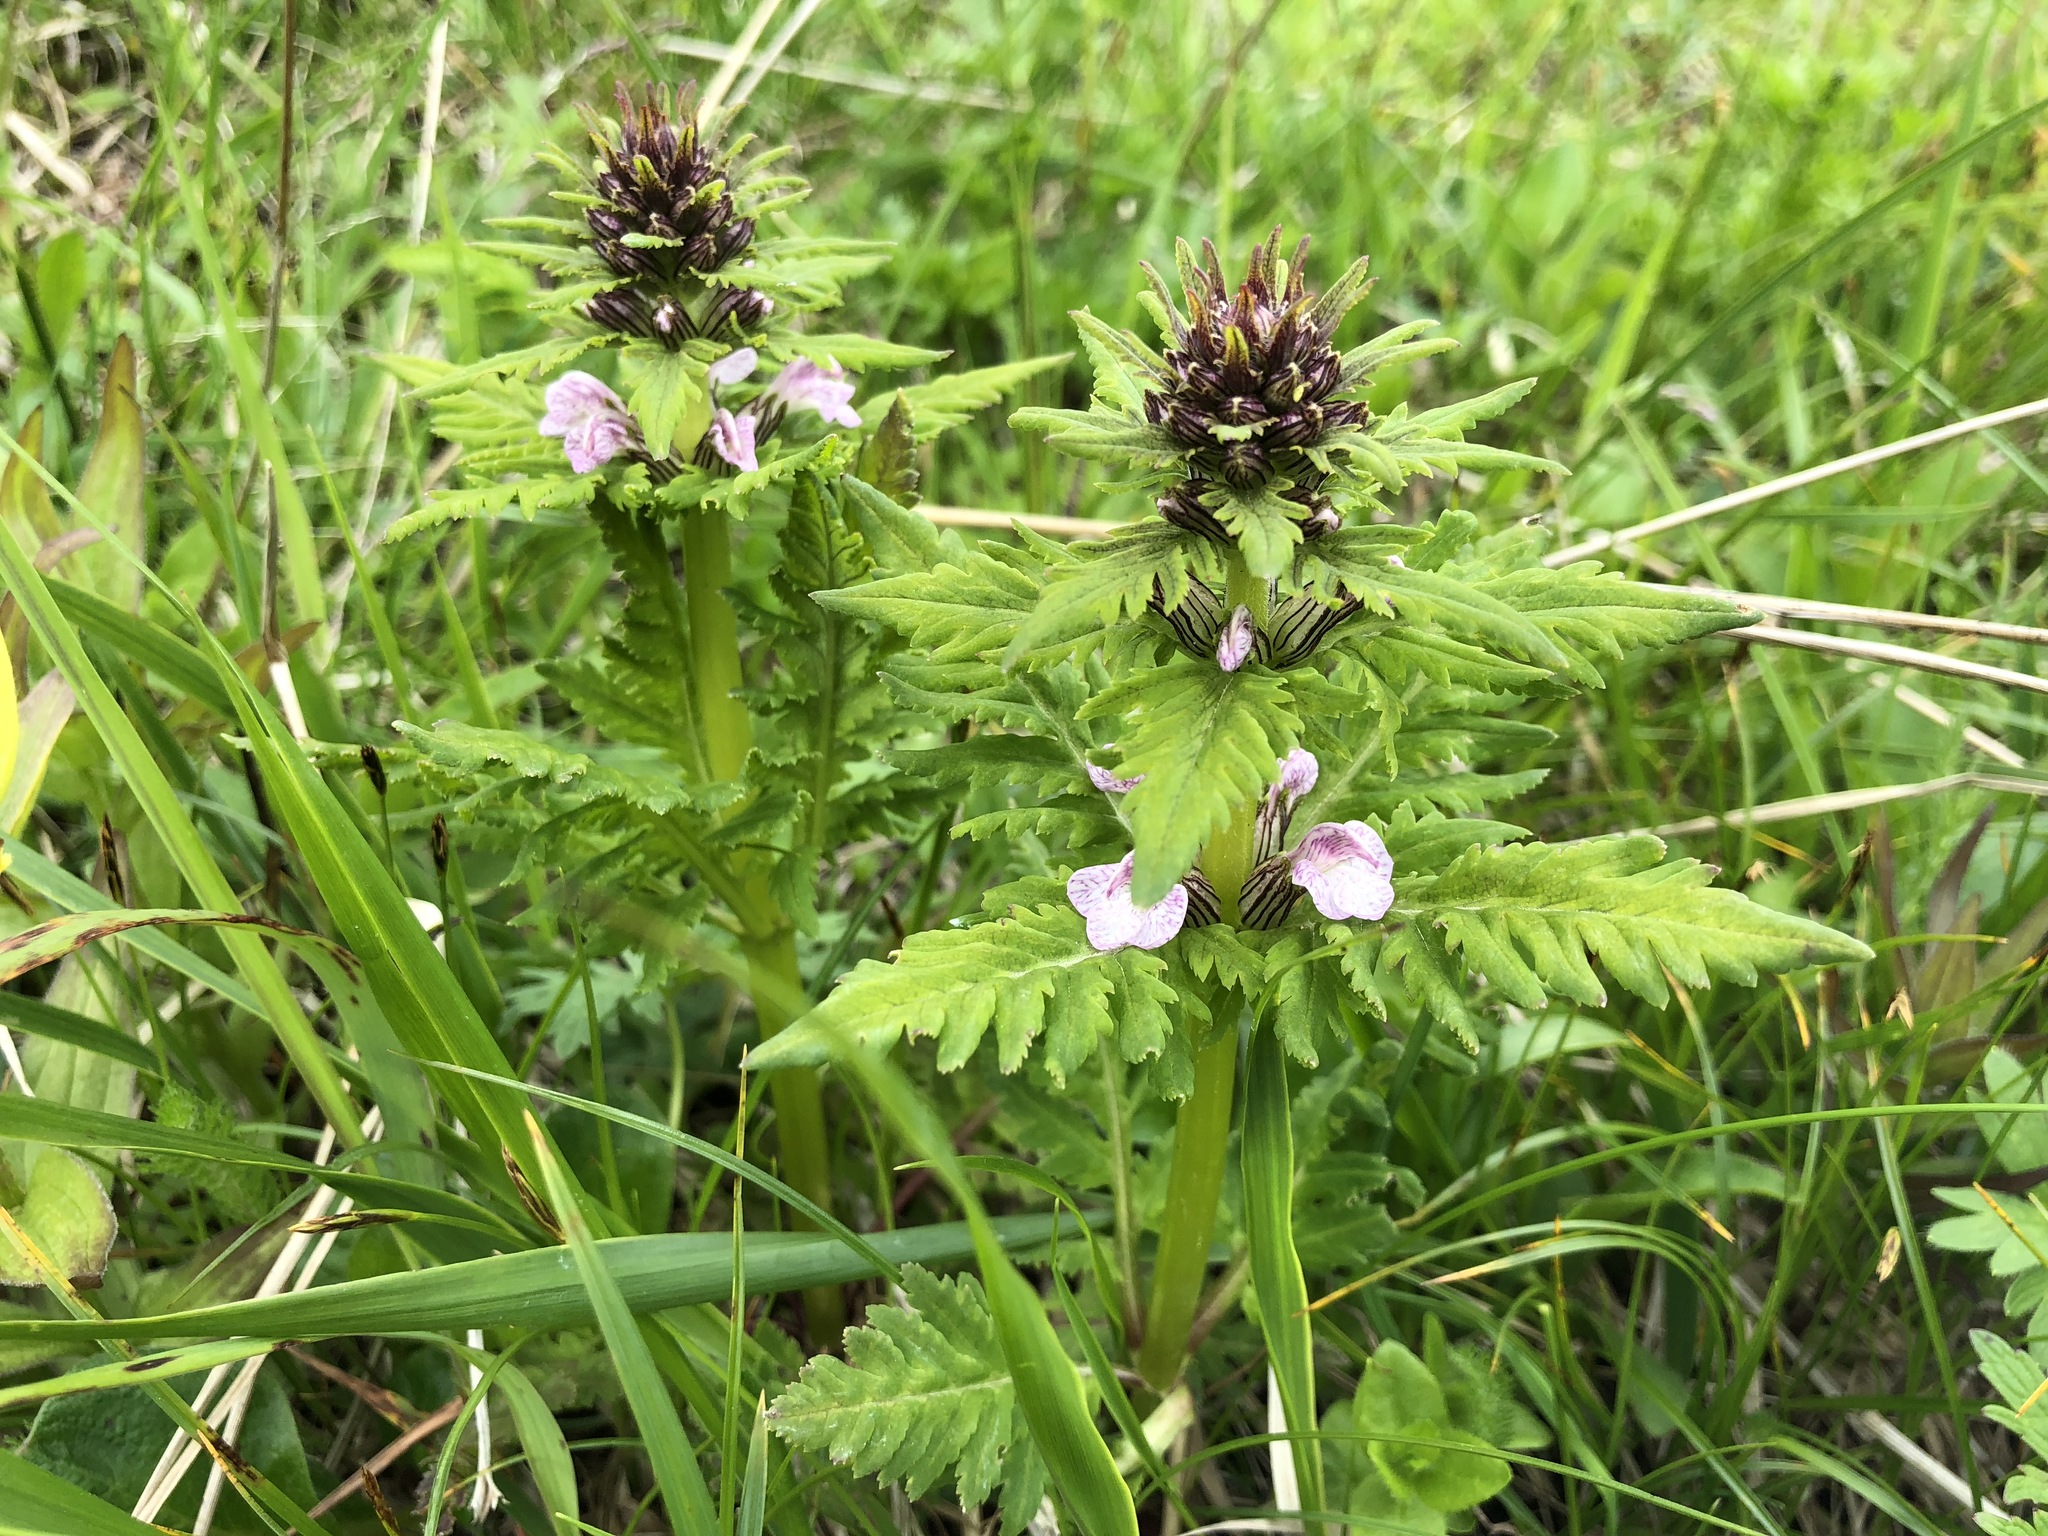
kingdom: Plantae
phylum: Tracheophyta
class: Magnoliopsida
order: Lamiales
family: Orobanchaceae
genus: Pedicularis
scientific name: Pedicularis chamissonis
